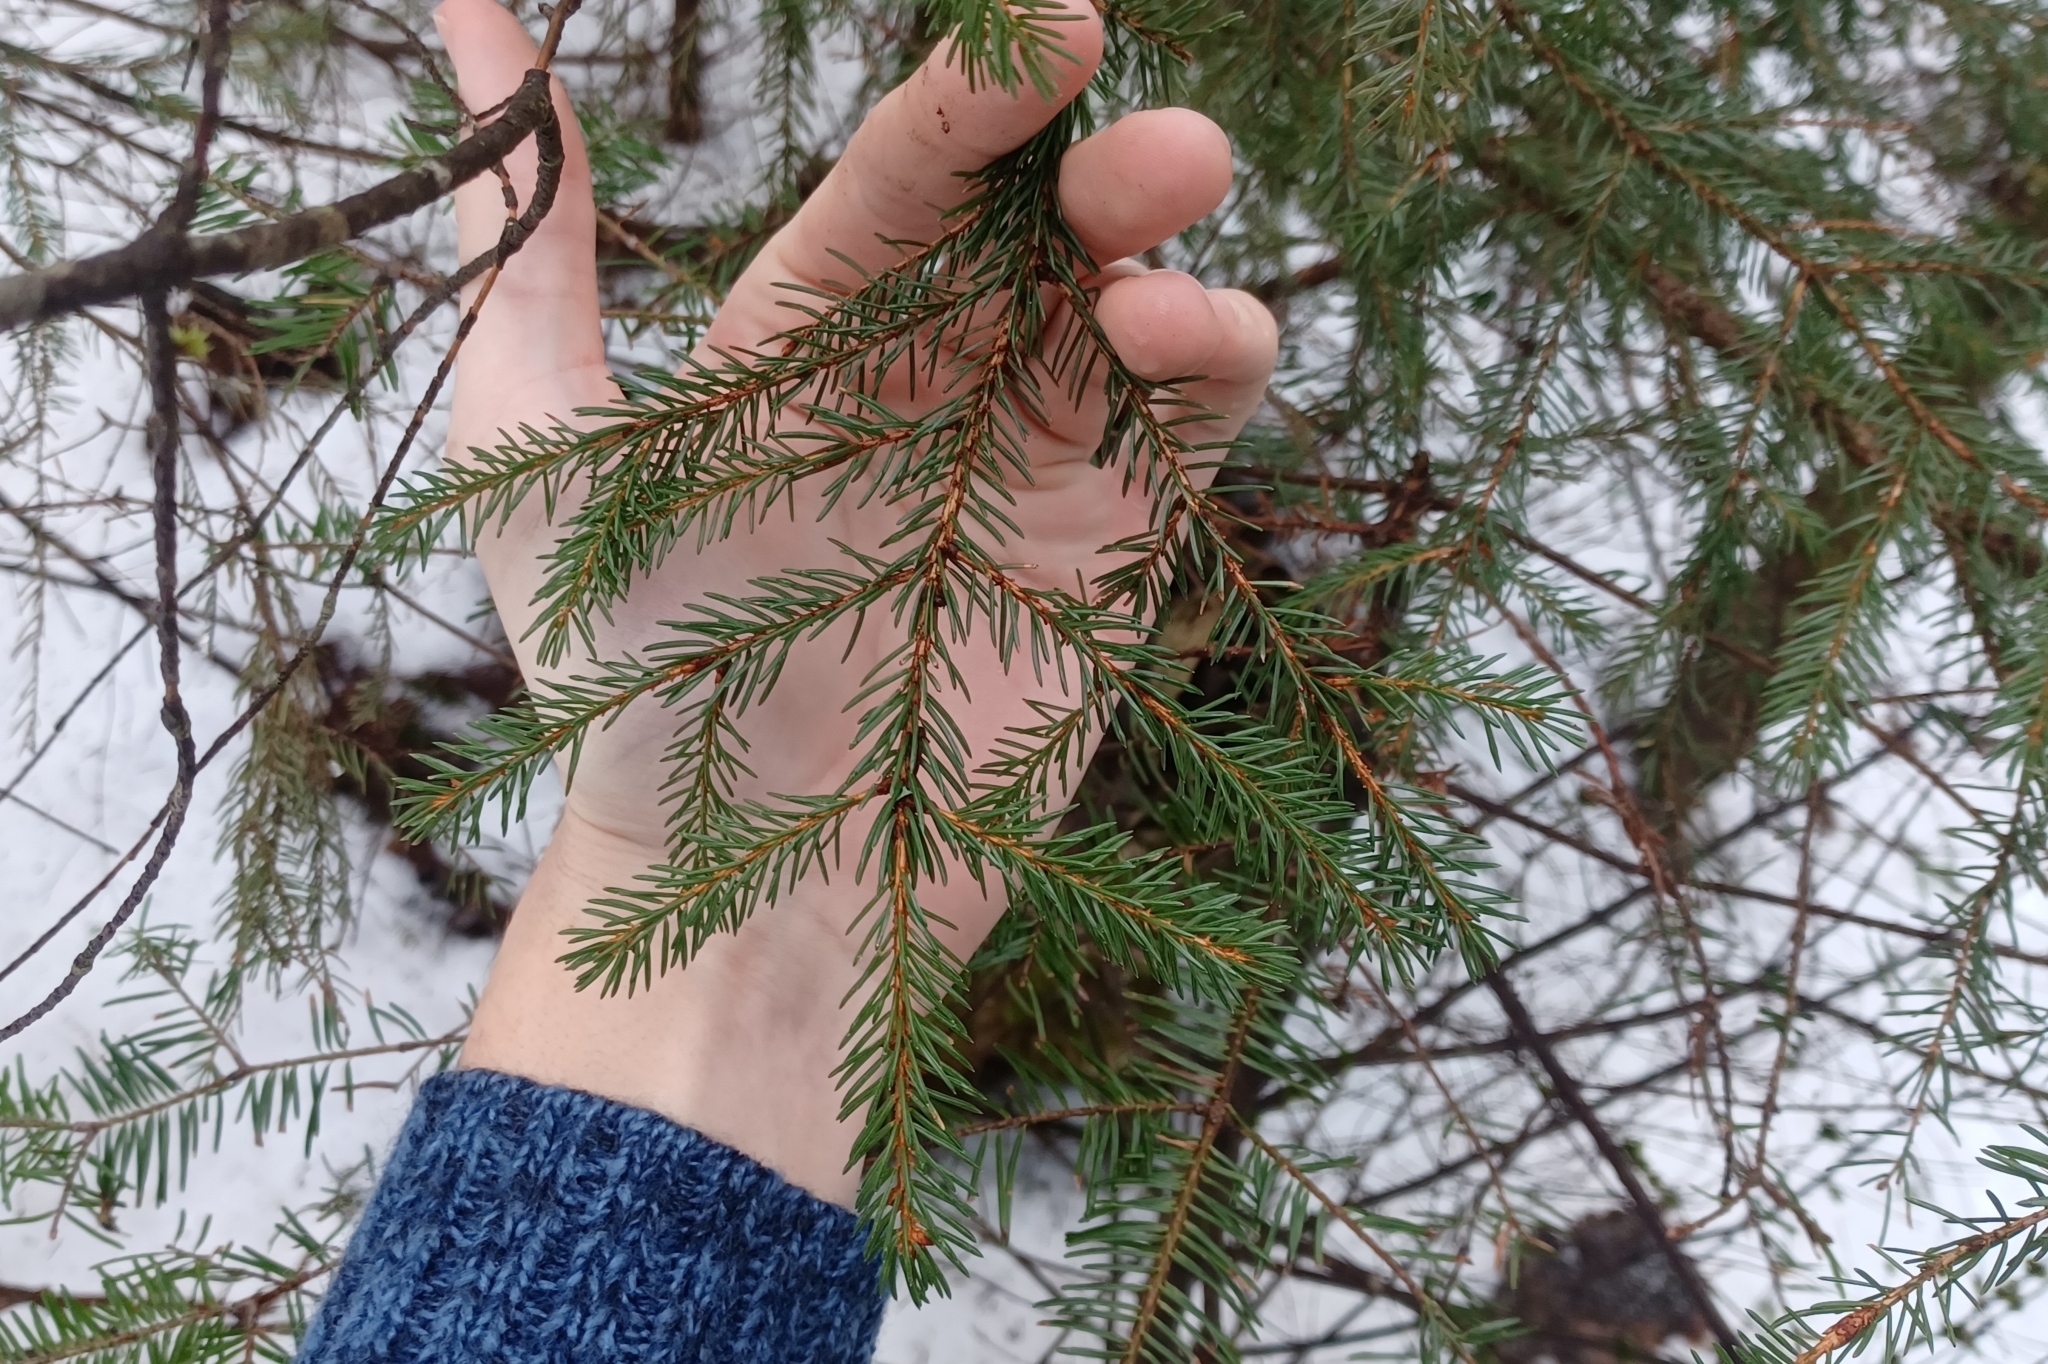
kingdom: Plantae
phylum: Tracheophyta
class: Pinopsida
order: Pinales
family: Pinaceae
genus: Picea
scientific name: Picea rubens
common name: Red spruce
